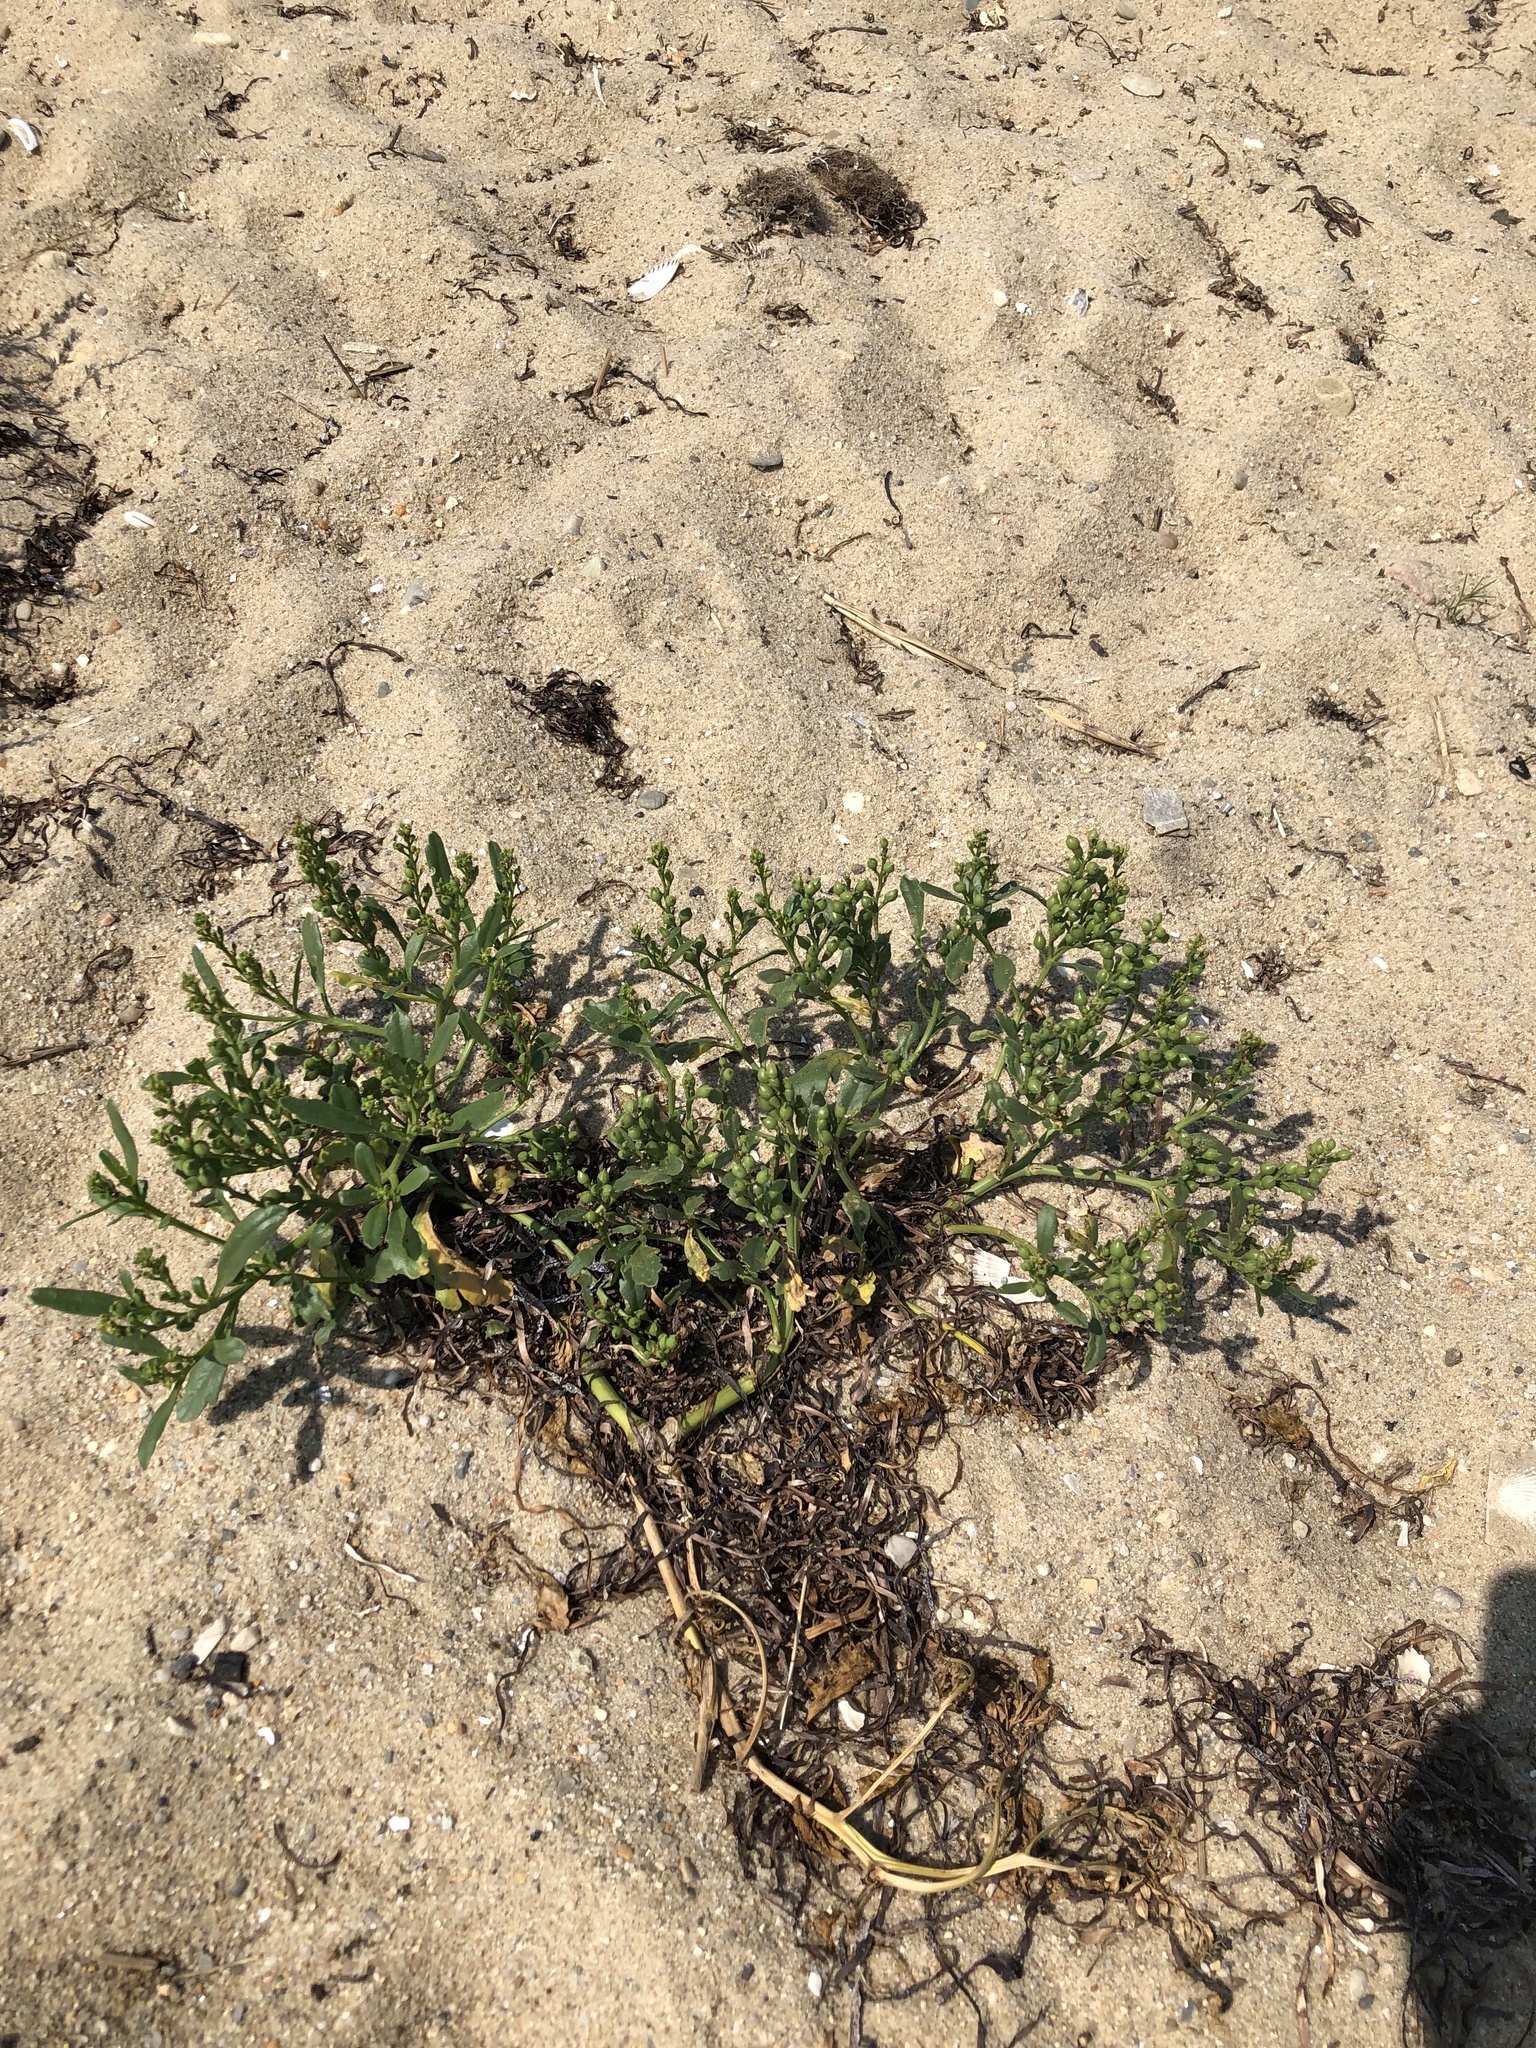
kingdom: Plantae
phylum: Tracheophyta
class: Magnoliopsida
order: Brassicales
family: Brassicaceae
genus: Cakile
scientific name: Cakile edentula
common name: American sea rocket
